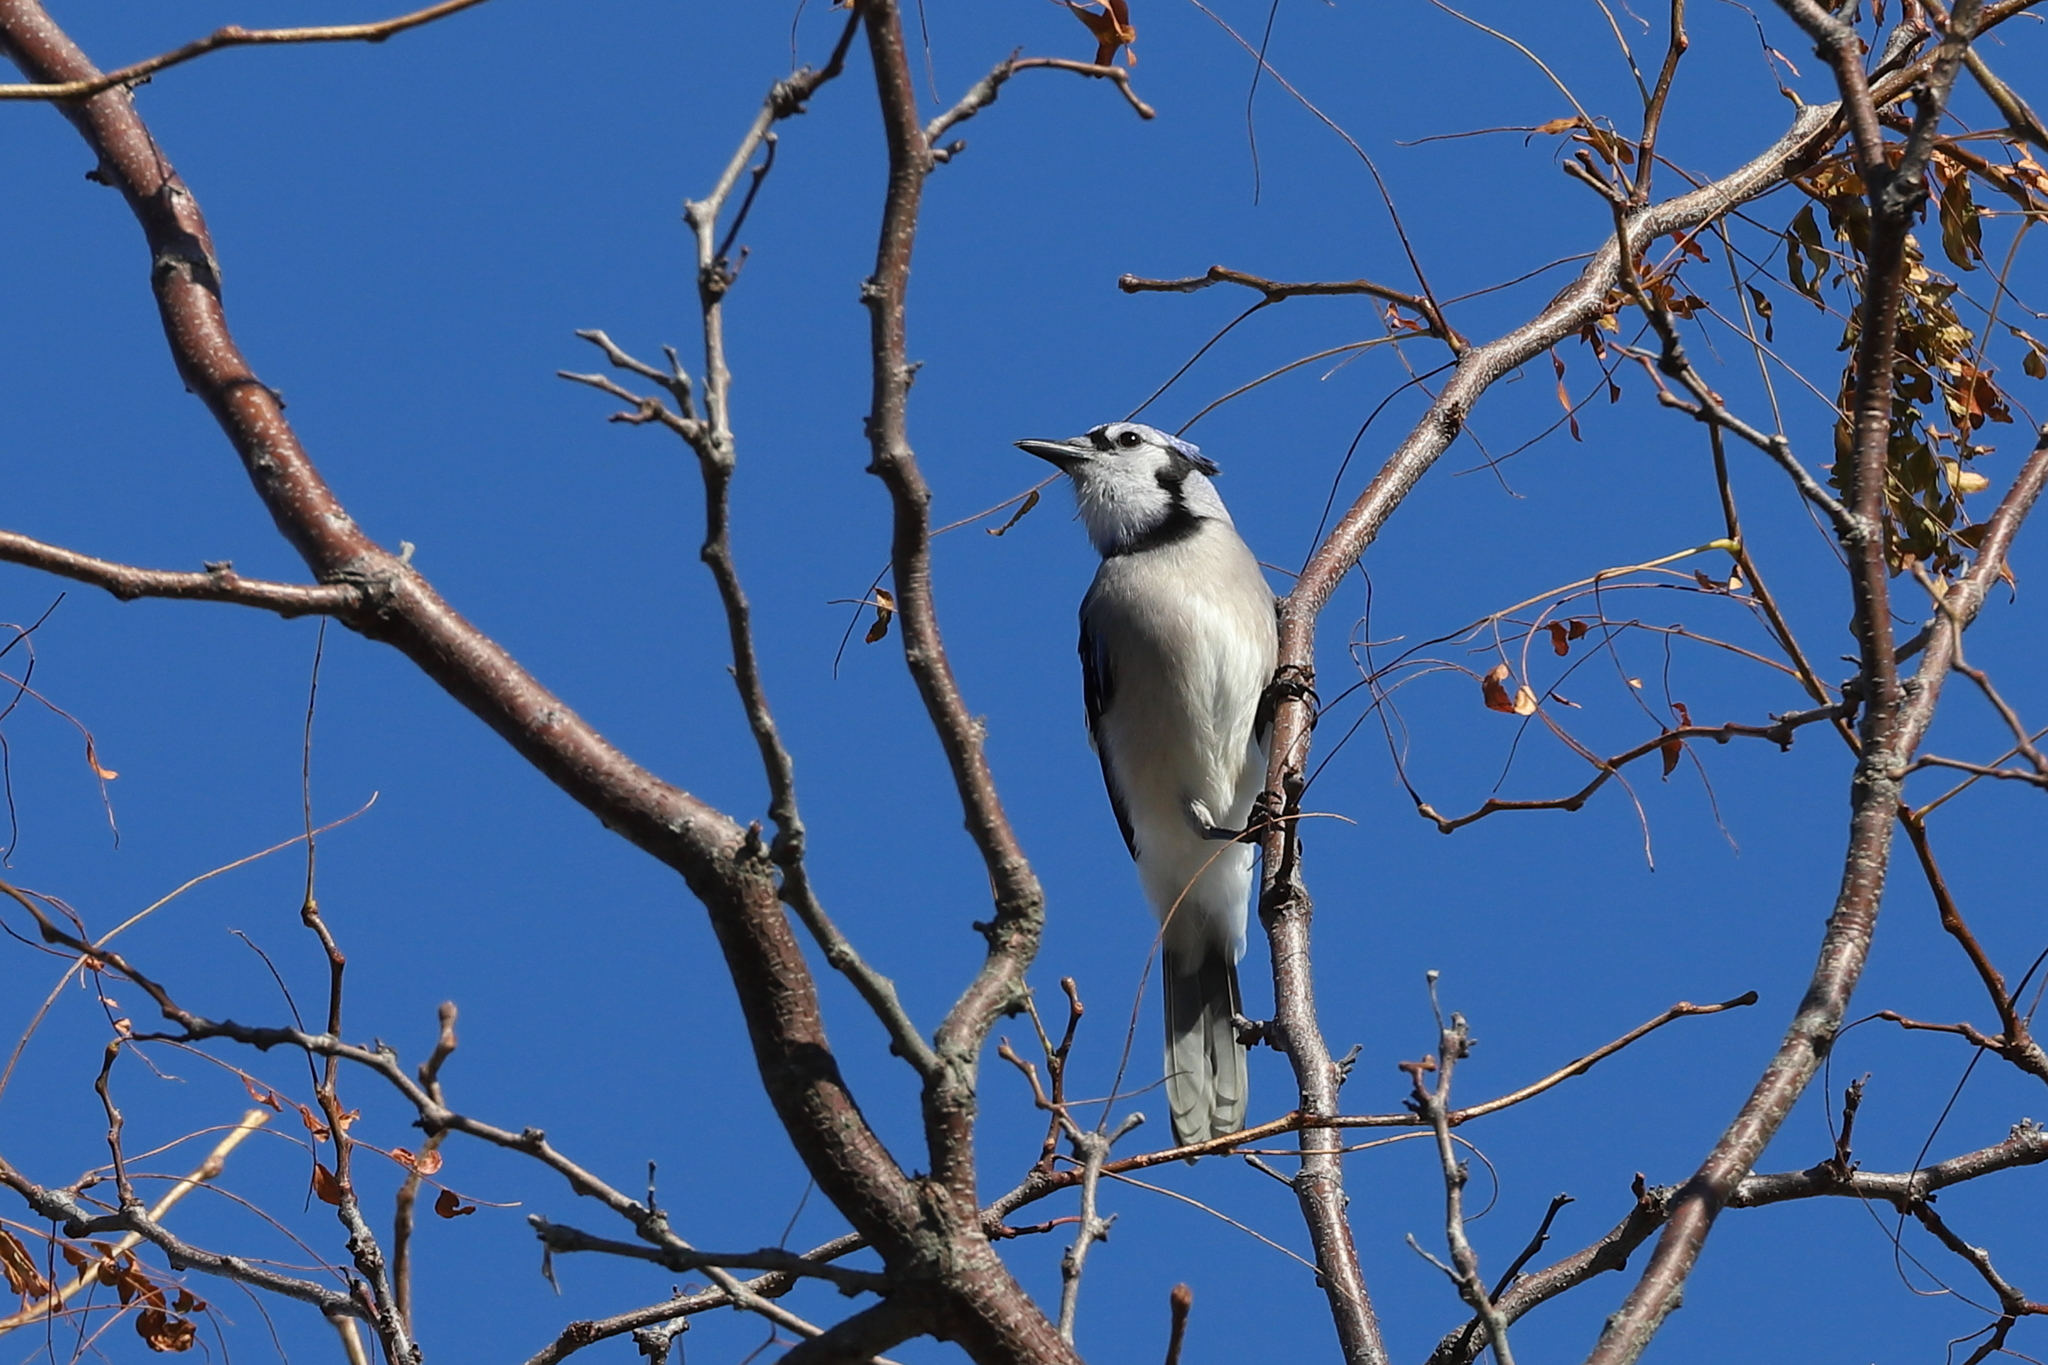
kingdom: Animalia
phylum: Chordata
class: Aves
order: Passeriformes
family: Corvidae
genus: Cyanocitta
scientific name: Cyanocitta cristata
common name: Blue jay
